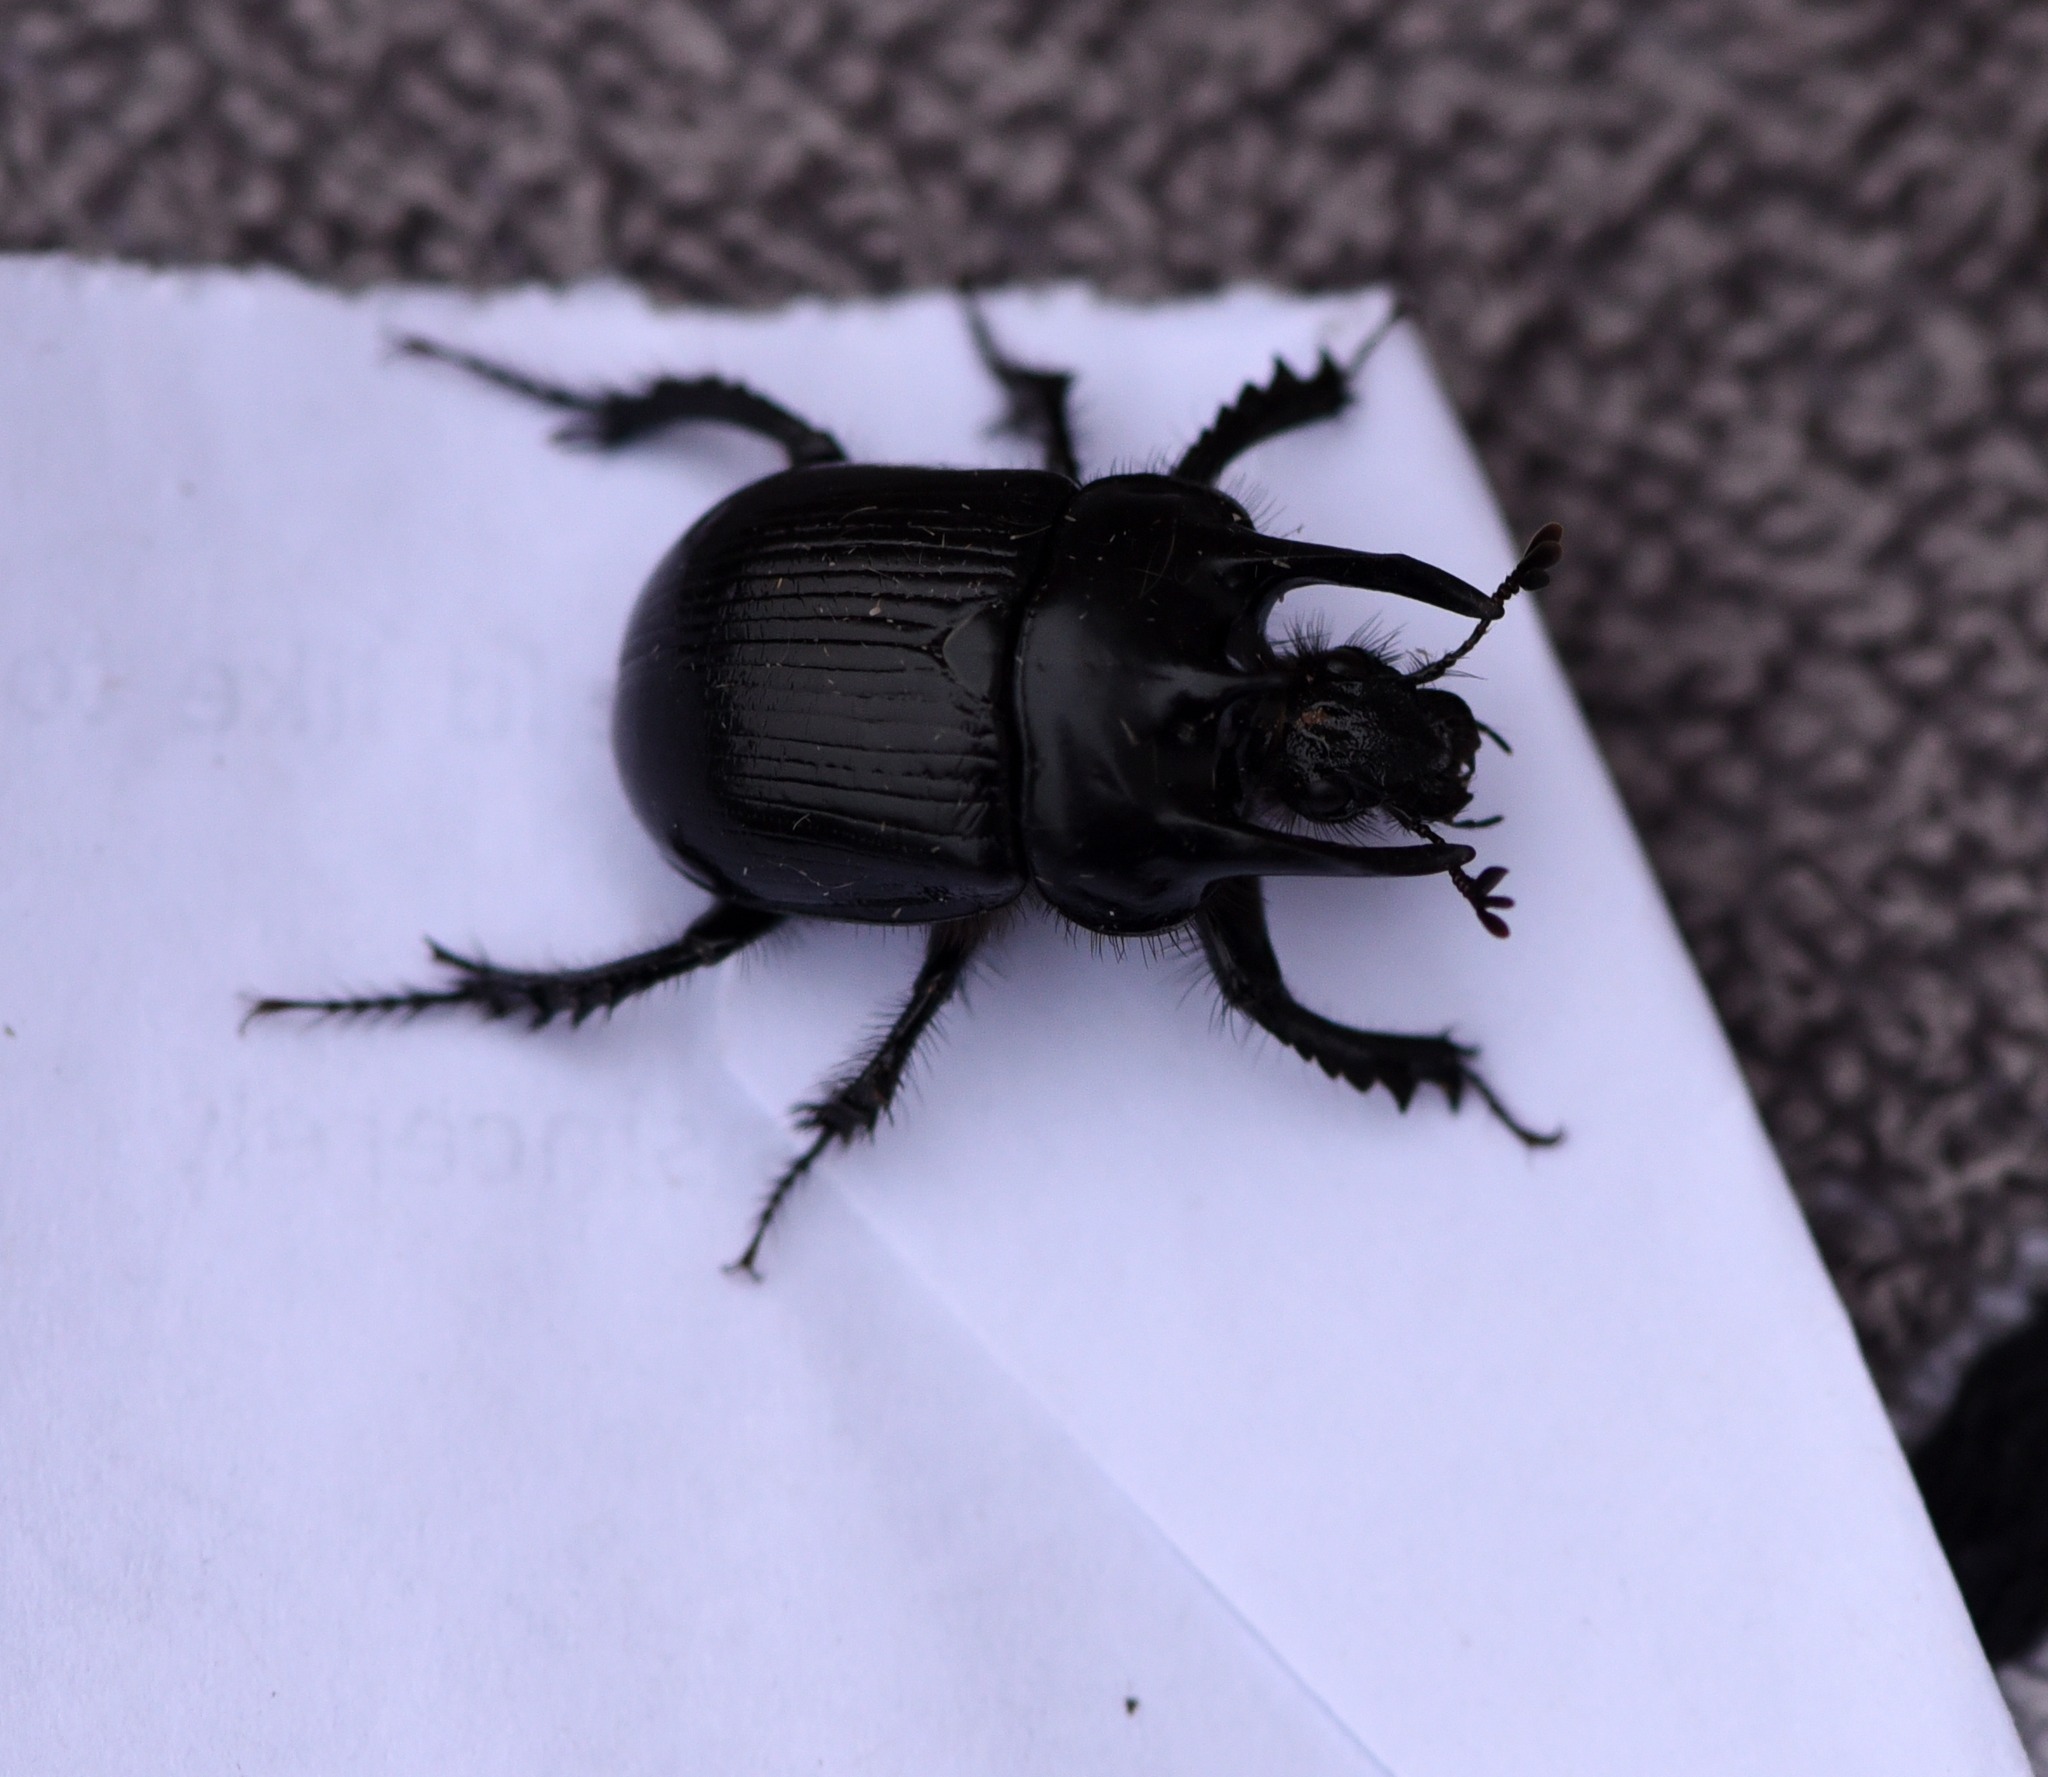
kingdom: Animalia
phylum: Arthropoda
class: Insecta
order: Coleoptera
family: Geotrupidae
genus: Typhaeus
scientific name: Typhaeus typhoeus
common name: Minotaur beetle
